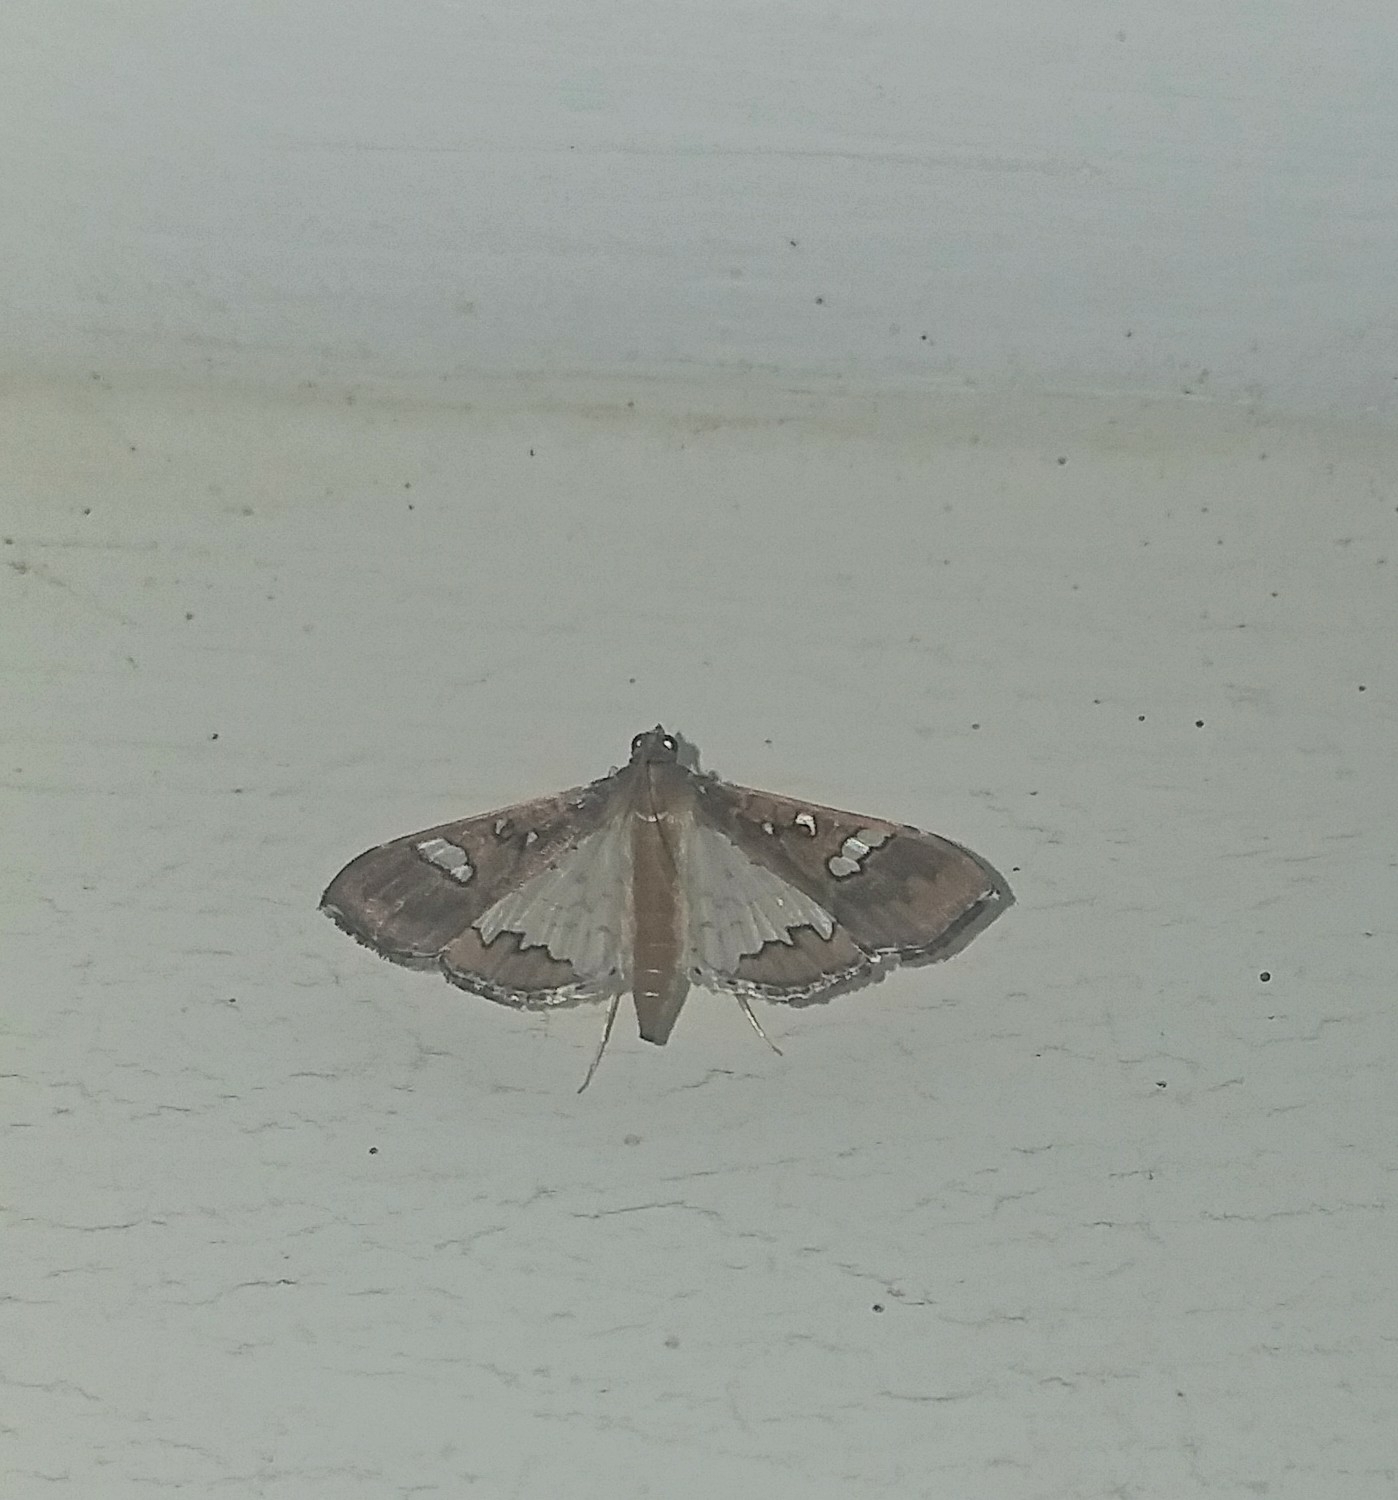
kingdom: Animalia
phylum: Arthropoda
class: Insecta
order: Lepidoptera
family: Crambidae
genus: Maruca
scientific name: Maruca vitrata
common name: Maruca pod borer
